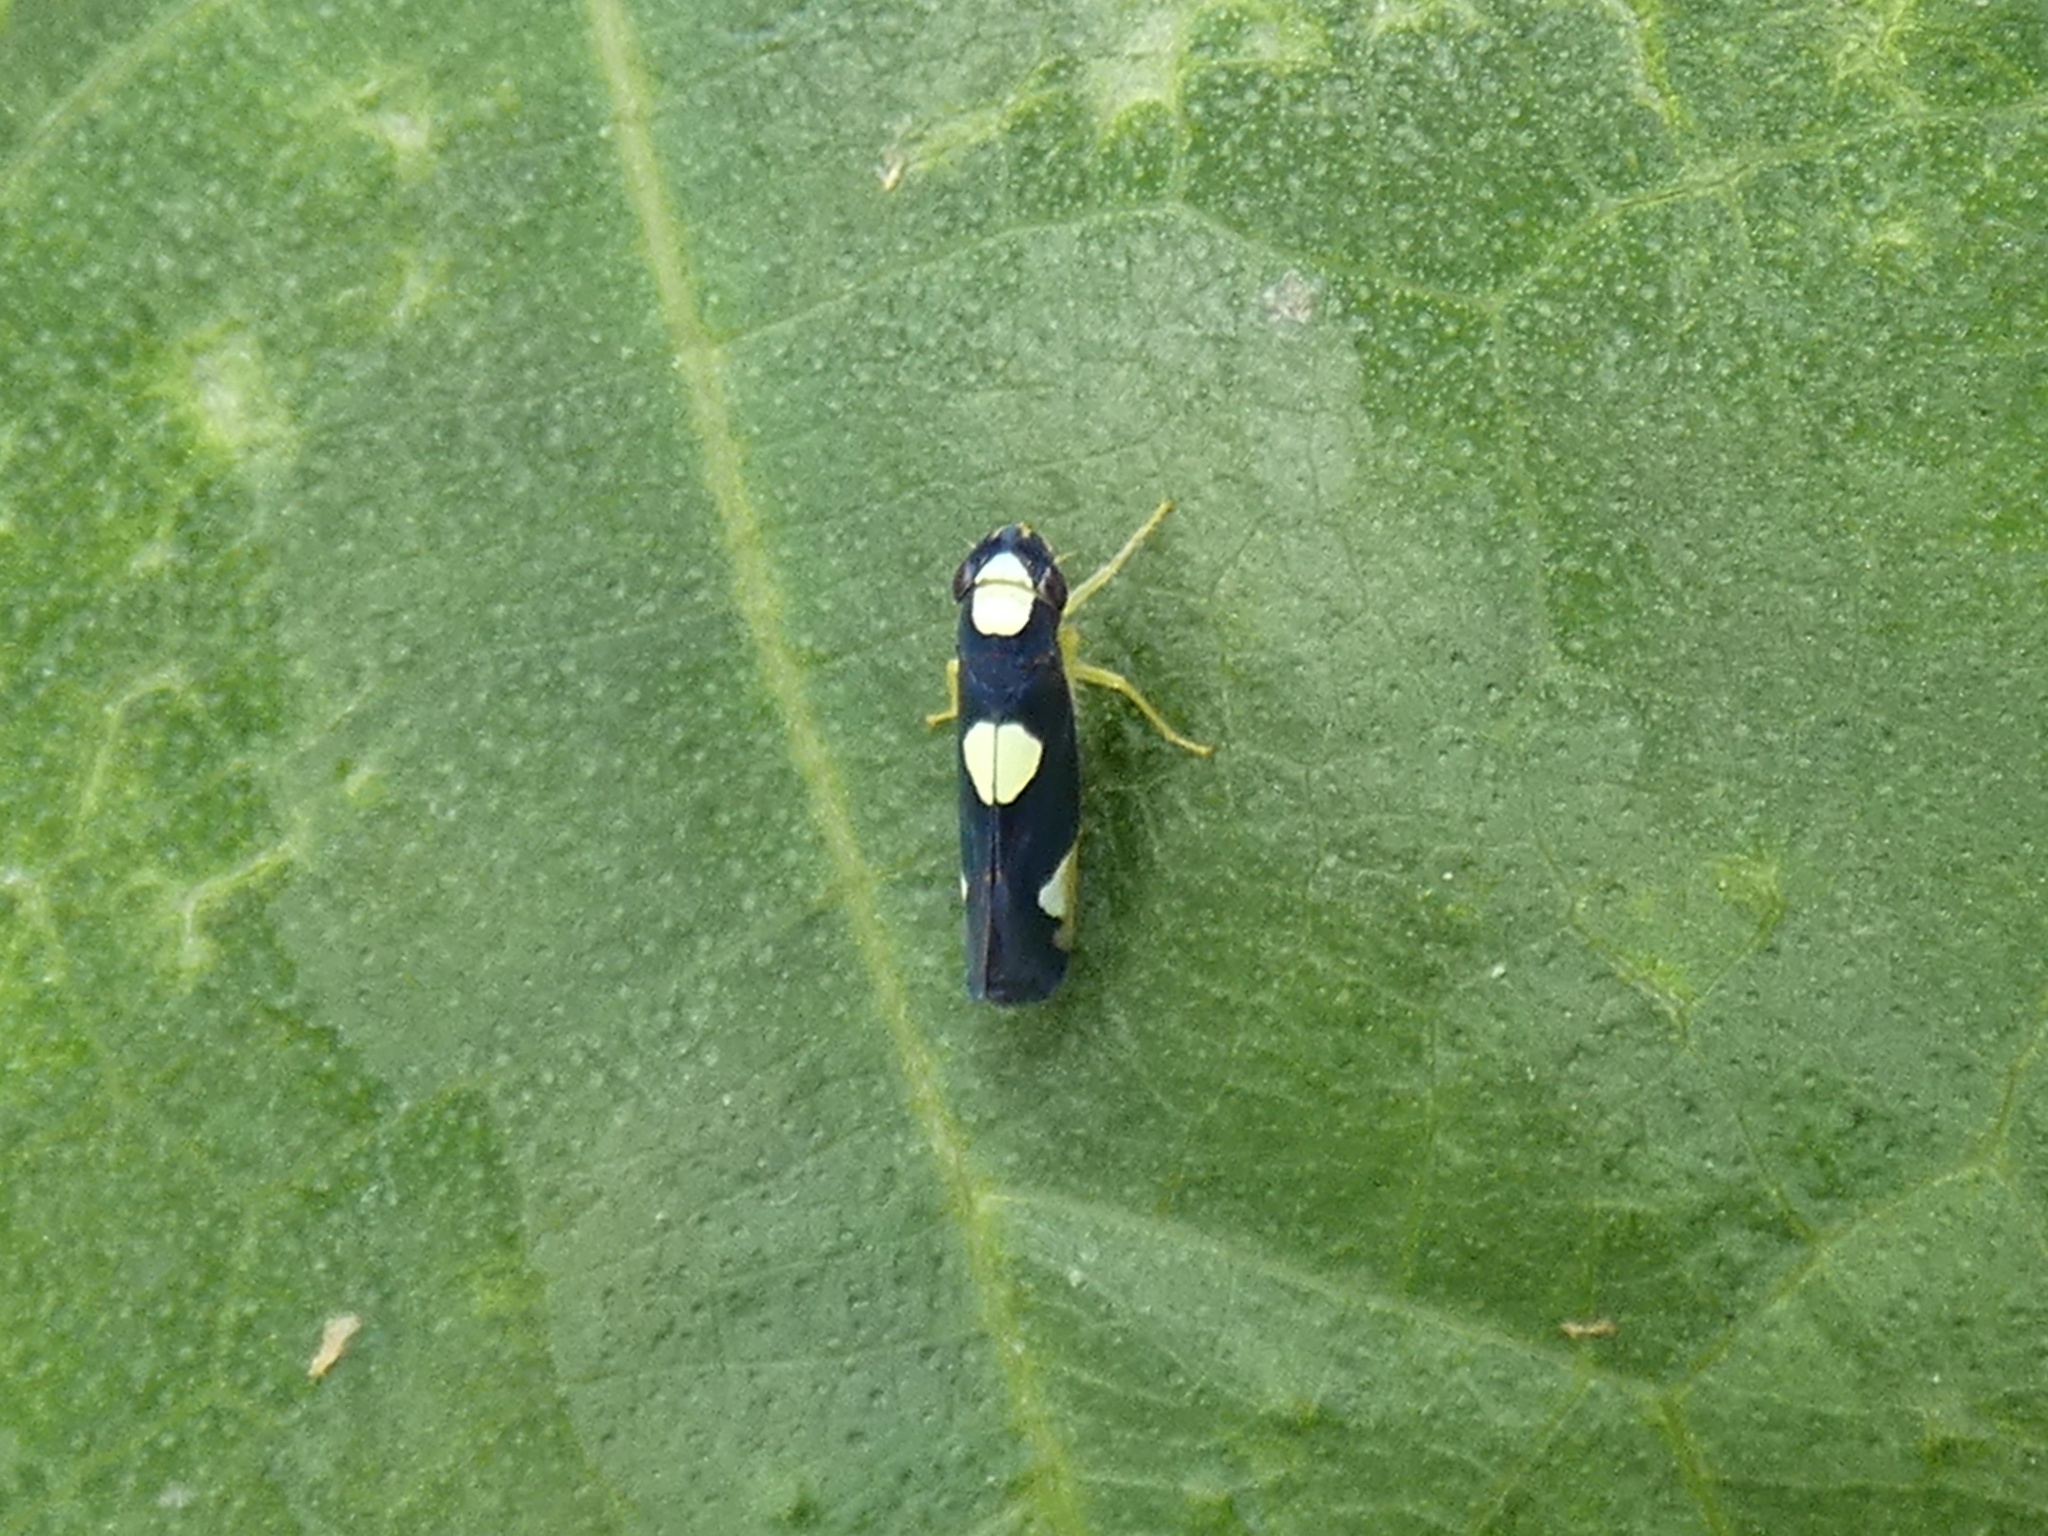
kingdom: Animalia
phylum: Arthropoda
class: Insecta
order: Hemiptera
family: Cicadellidae
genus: Erythrogonia
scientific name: Erythrogonia quadriplagiata
